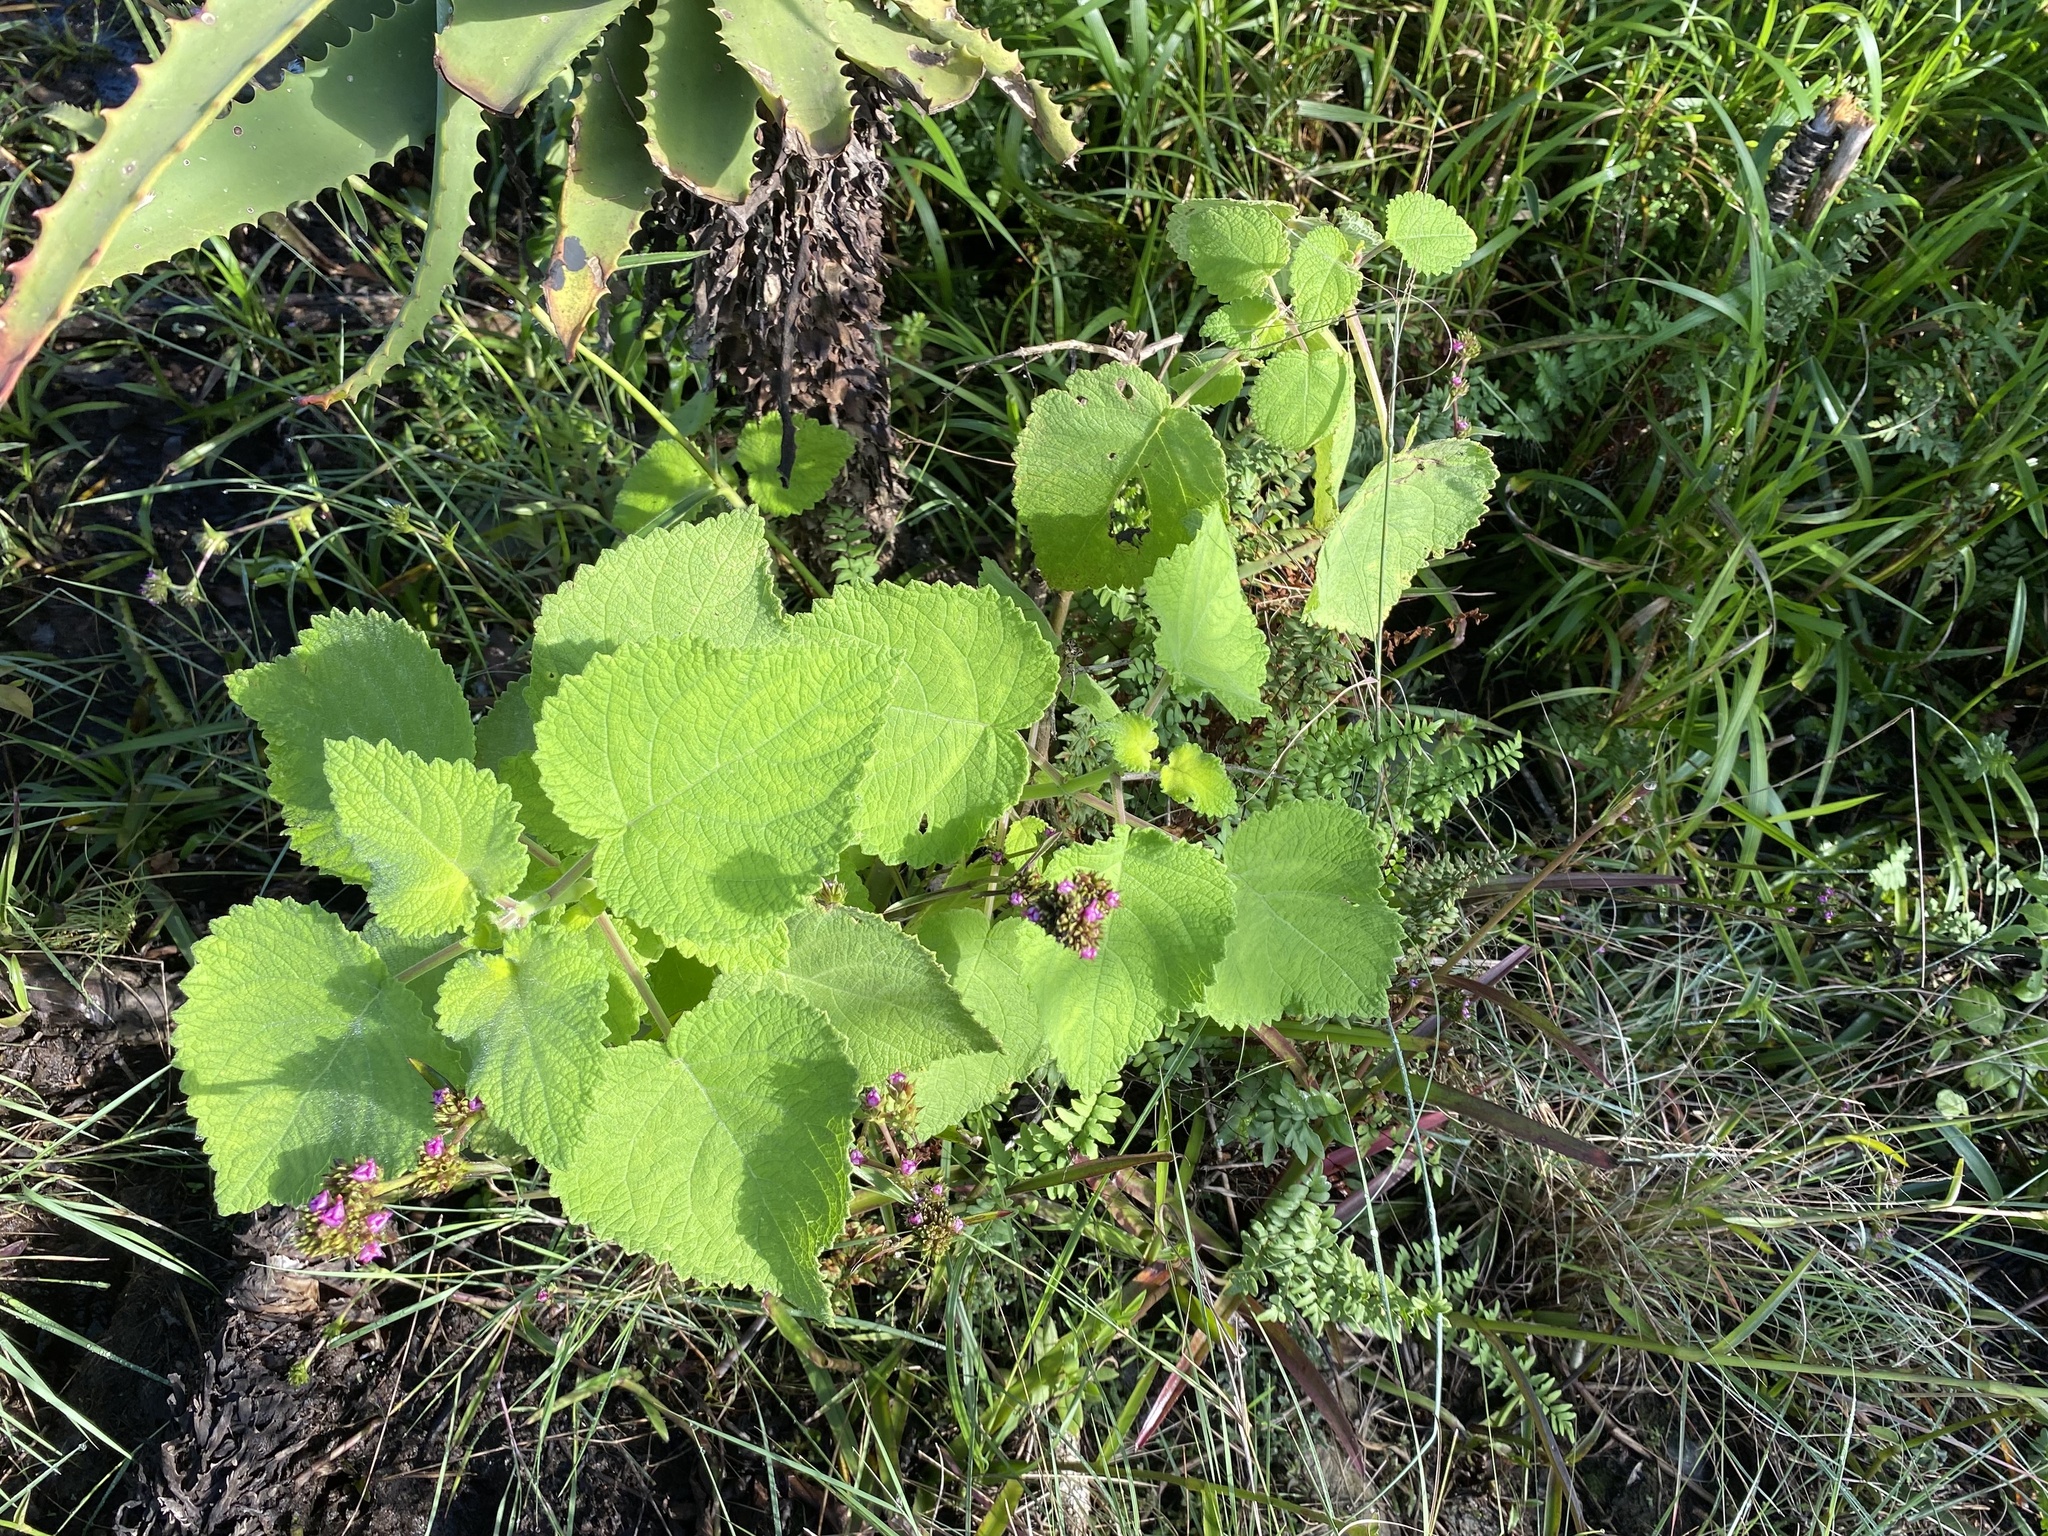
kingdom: Plantae
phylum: Tracheophyta
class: Magnoliopsida
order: Lamiales
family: Lamiaceae
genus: Tetradenia
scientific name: Tetradenia riparia
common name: Gingerbush
